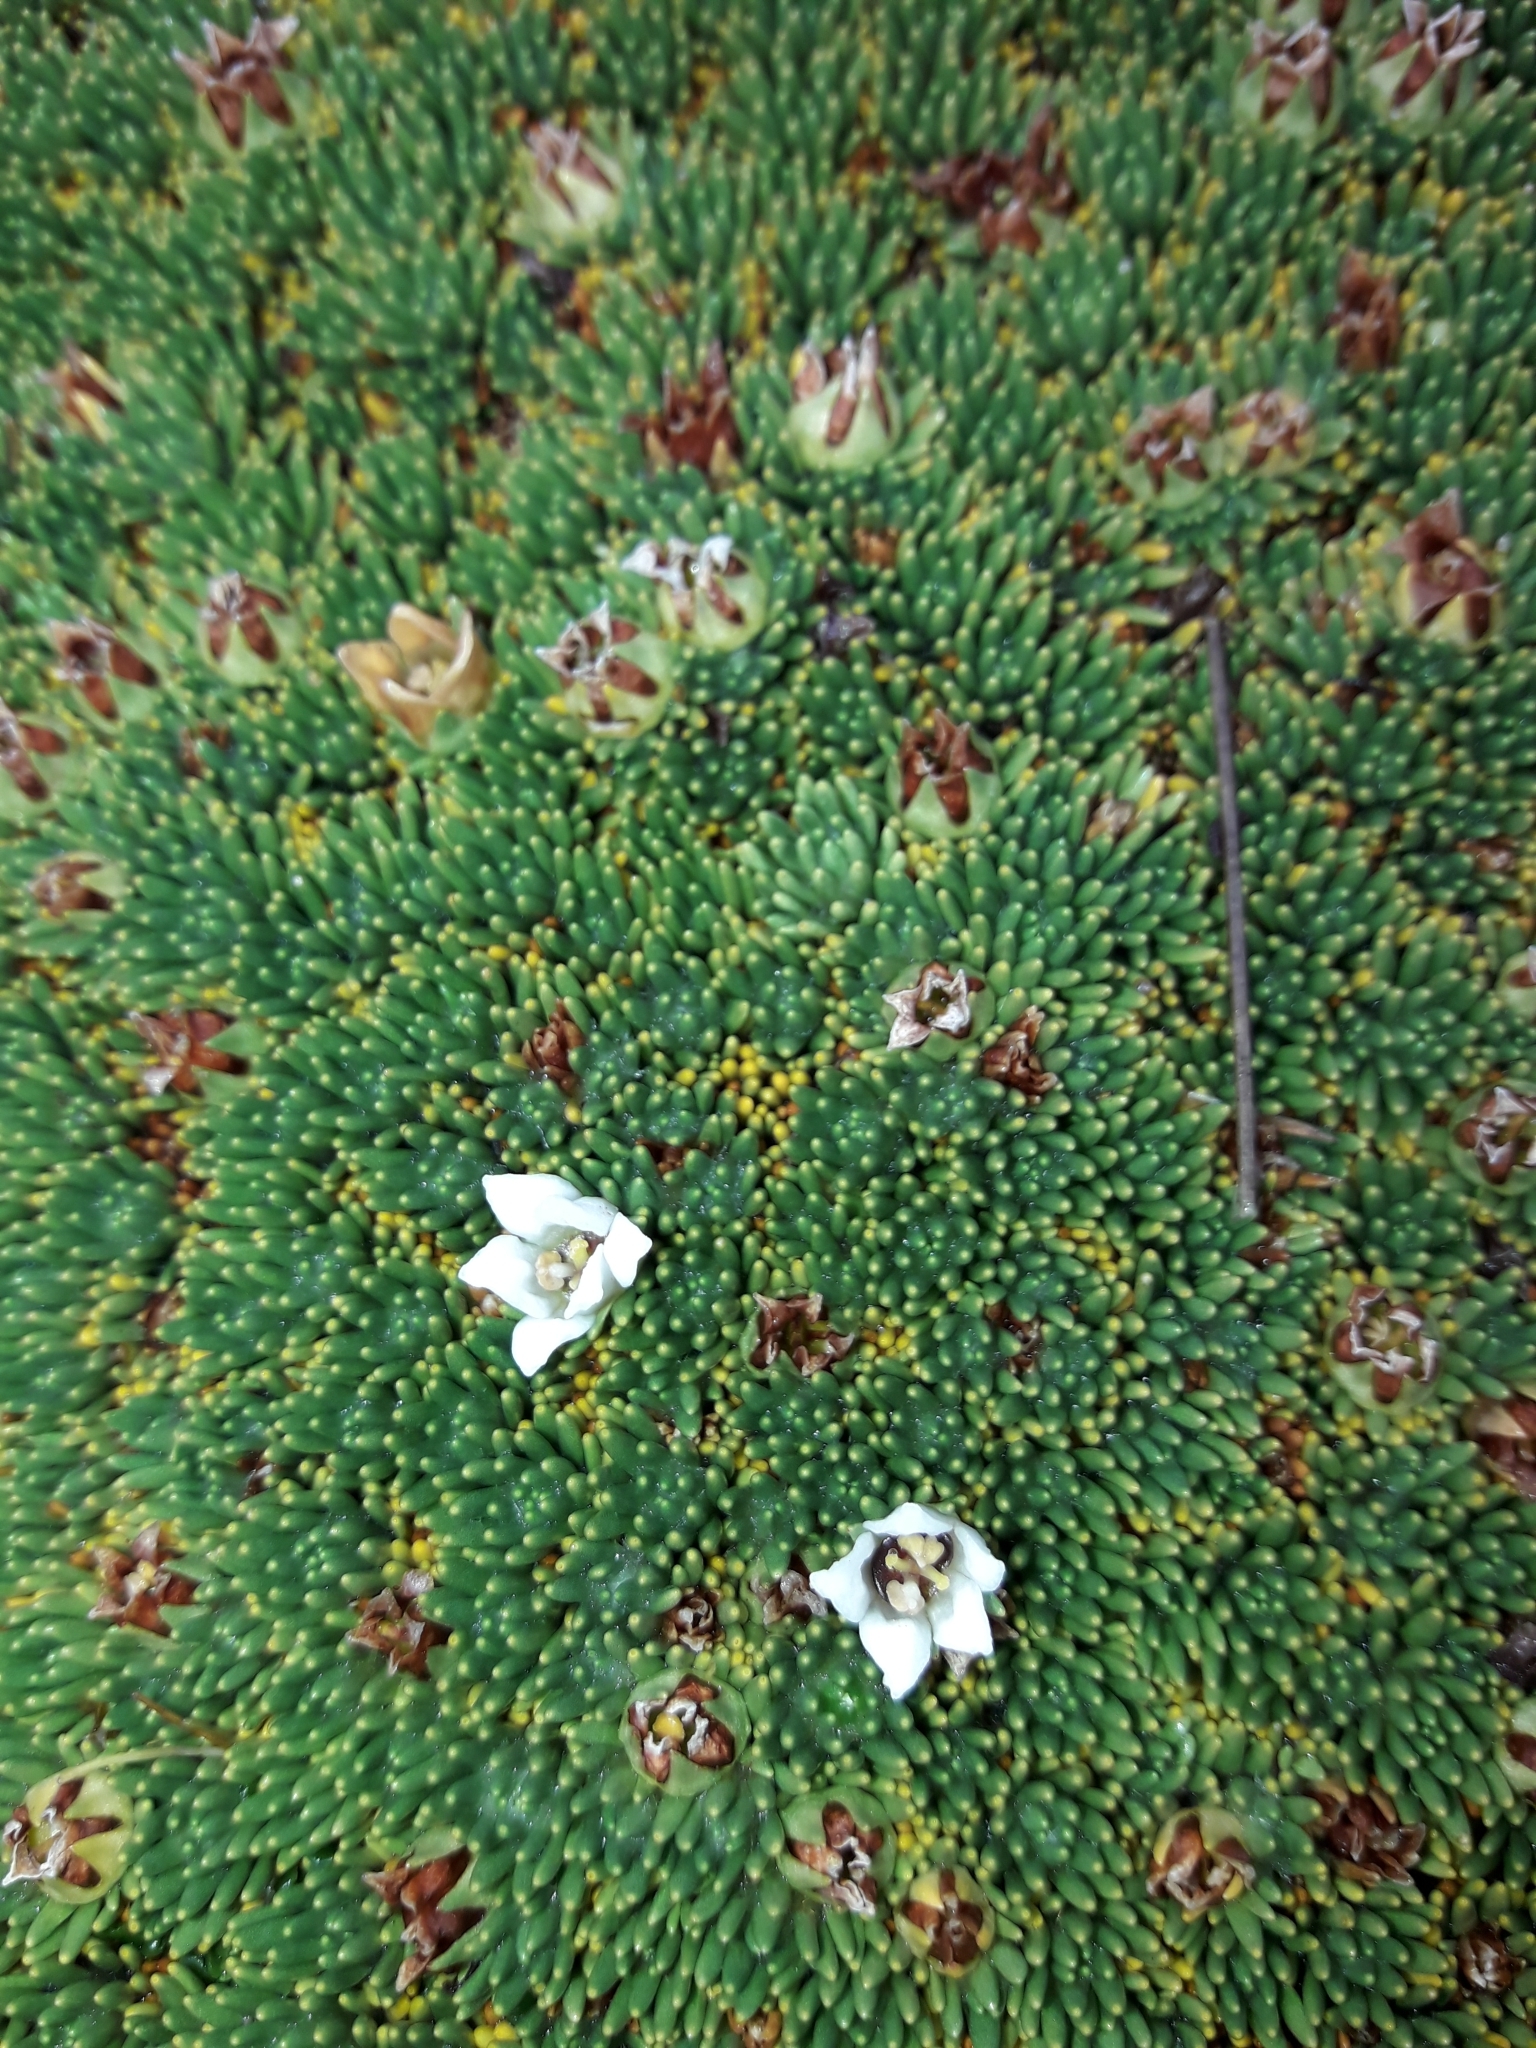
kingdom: Plantae
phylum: Tracheophyta
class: Magnoliopsida
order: Asterales
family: Stylidiaceae
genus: Donatia
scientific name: Donatia novae-zelandiae
